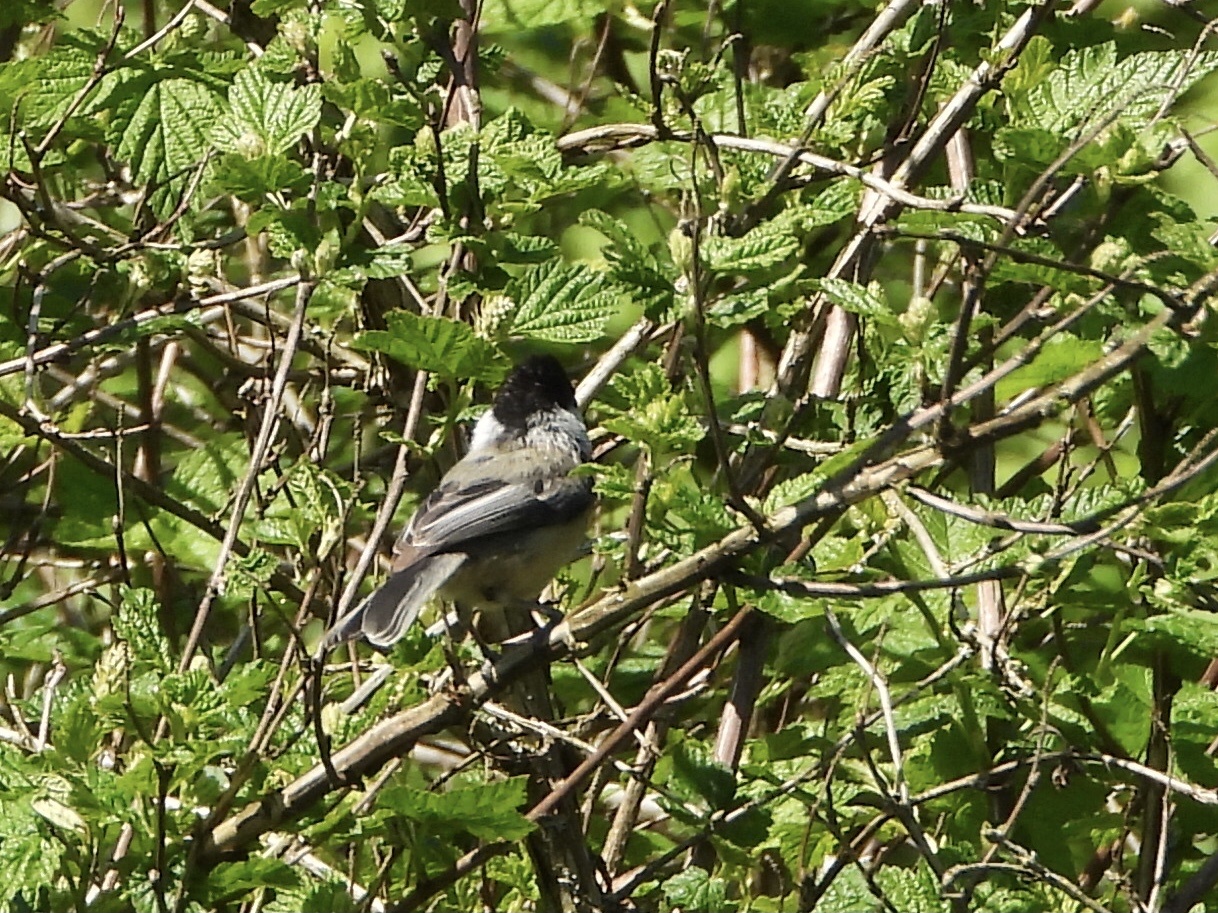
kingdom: Animalia
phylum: Chordata
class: Aves
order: Passeriformes
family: Paridae
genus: Poecile
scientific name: Poecile atricapillus
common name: Black-capped chickadee
